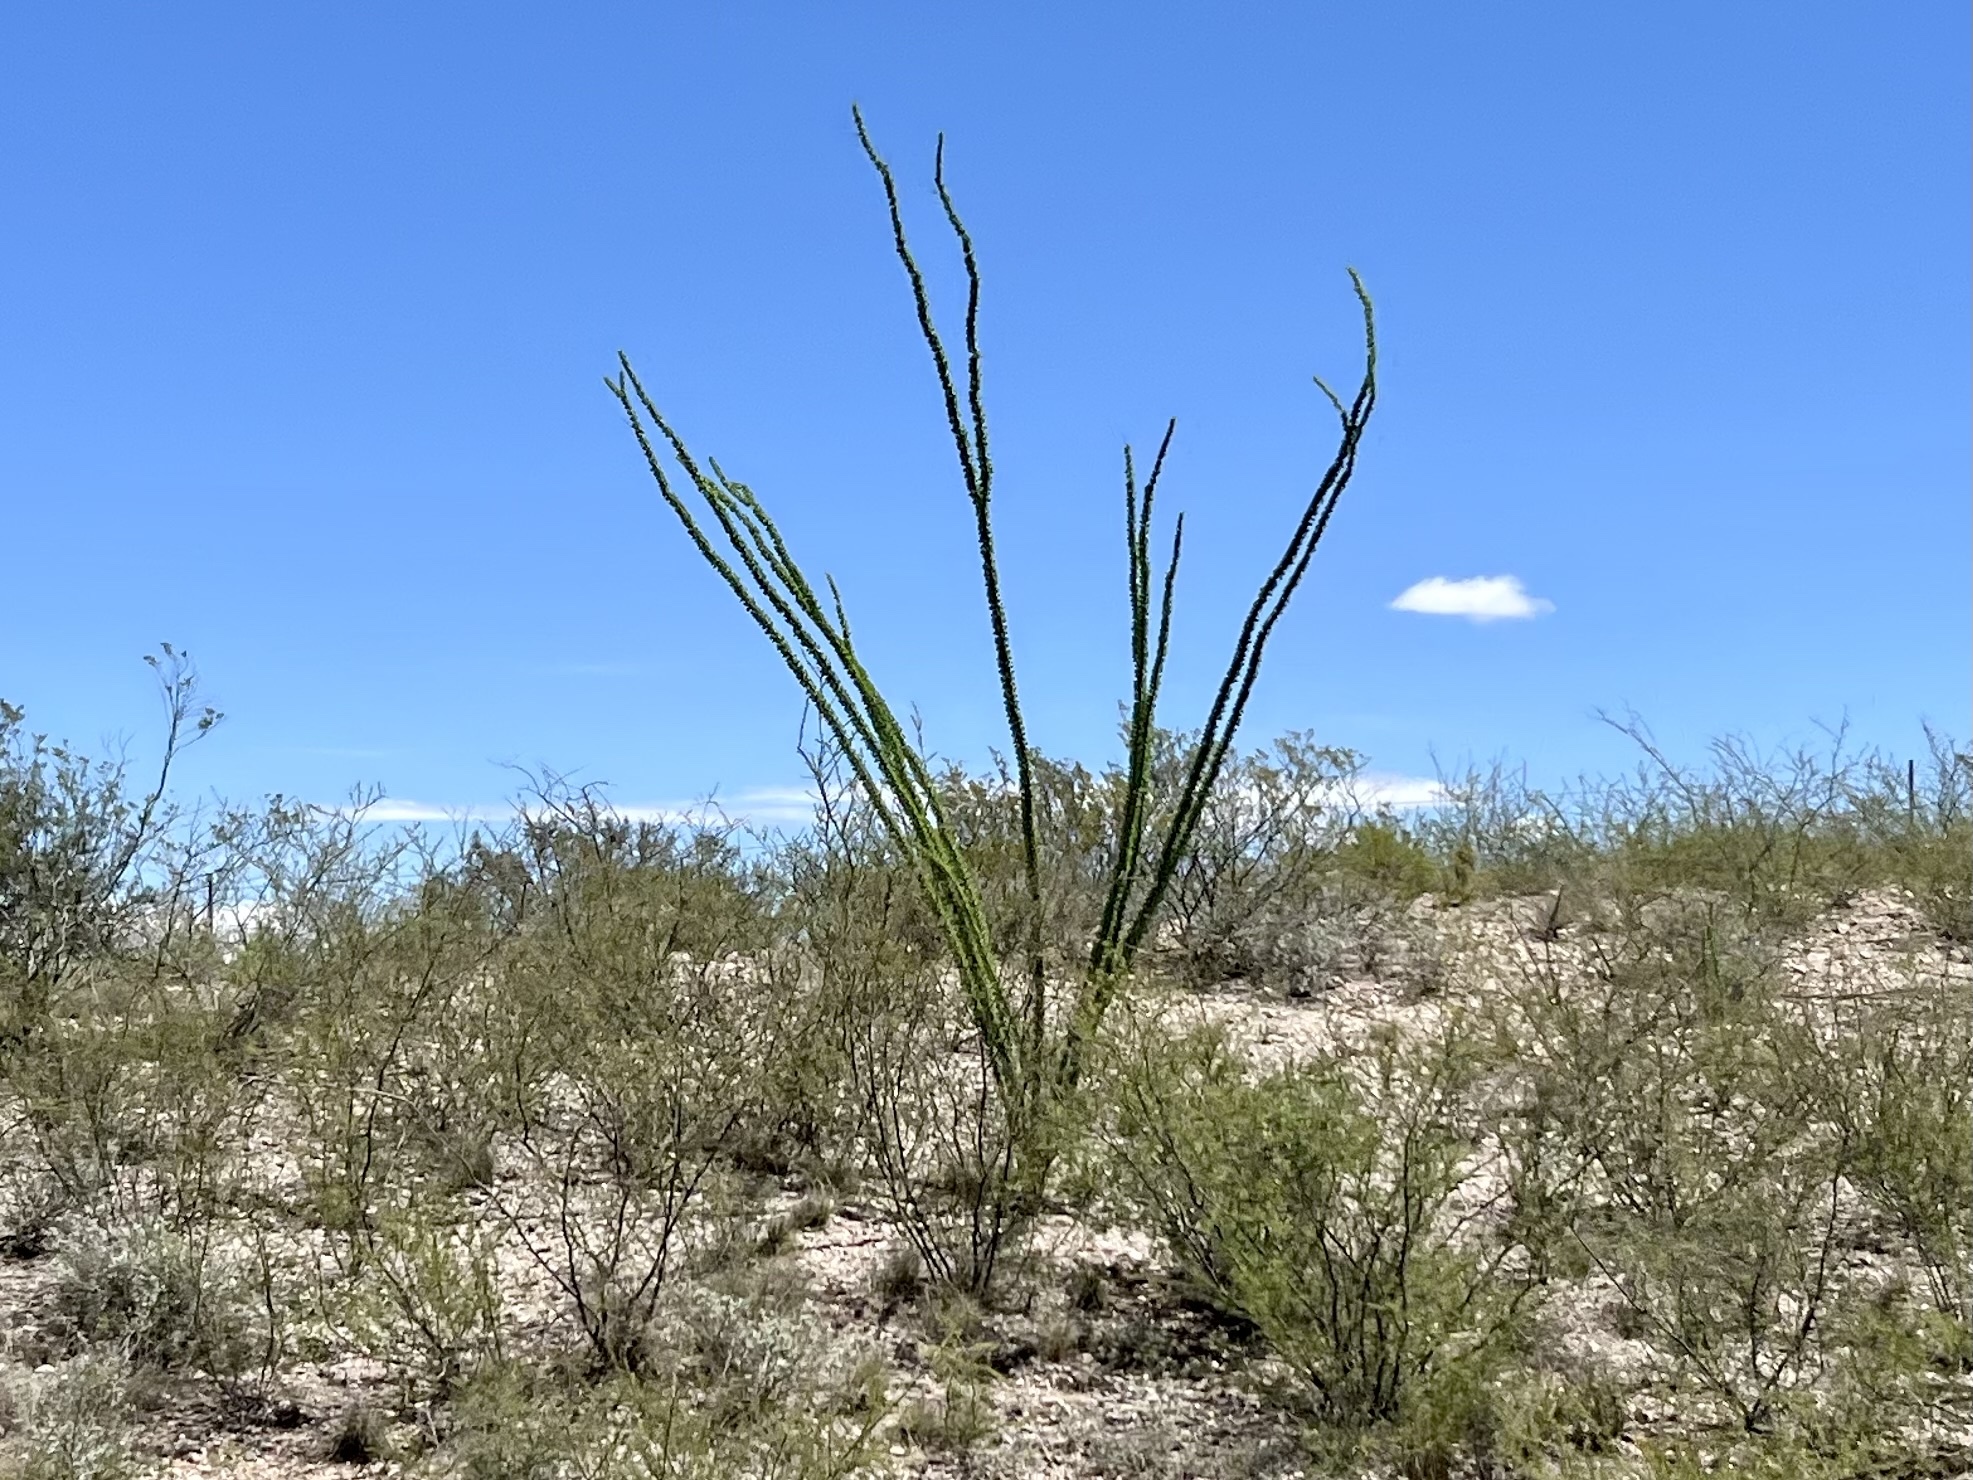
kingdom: Plantae
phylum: Tracheophyta
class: Magnoliopsida
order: Ericales
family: Fouquieriaceae
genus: Fouquieria
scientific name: Fouquieria splendens
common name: Vine-cactus
